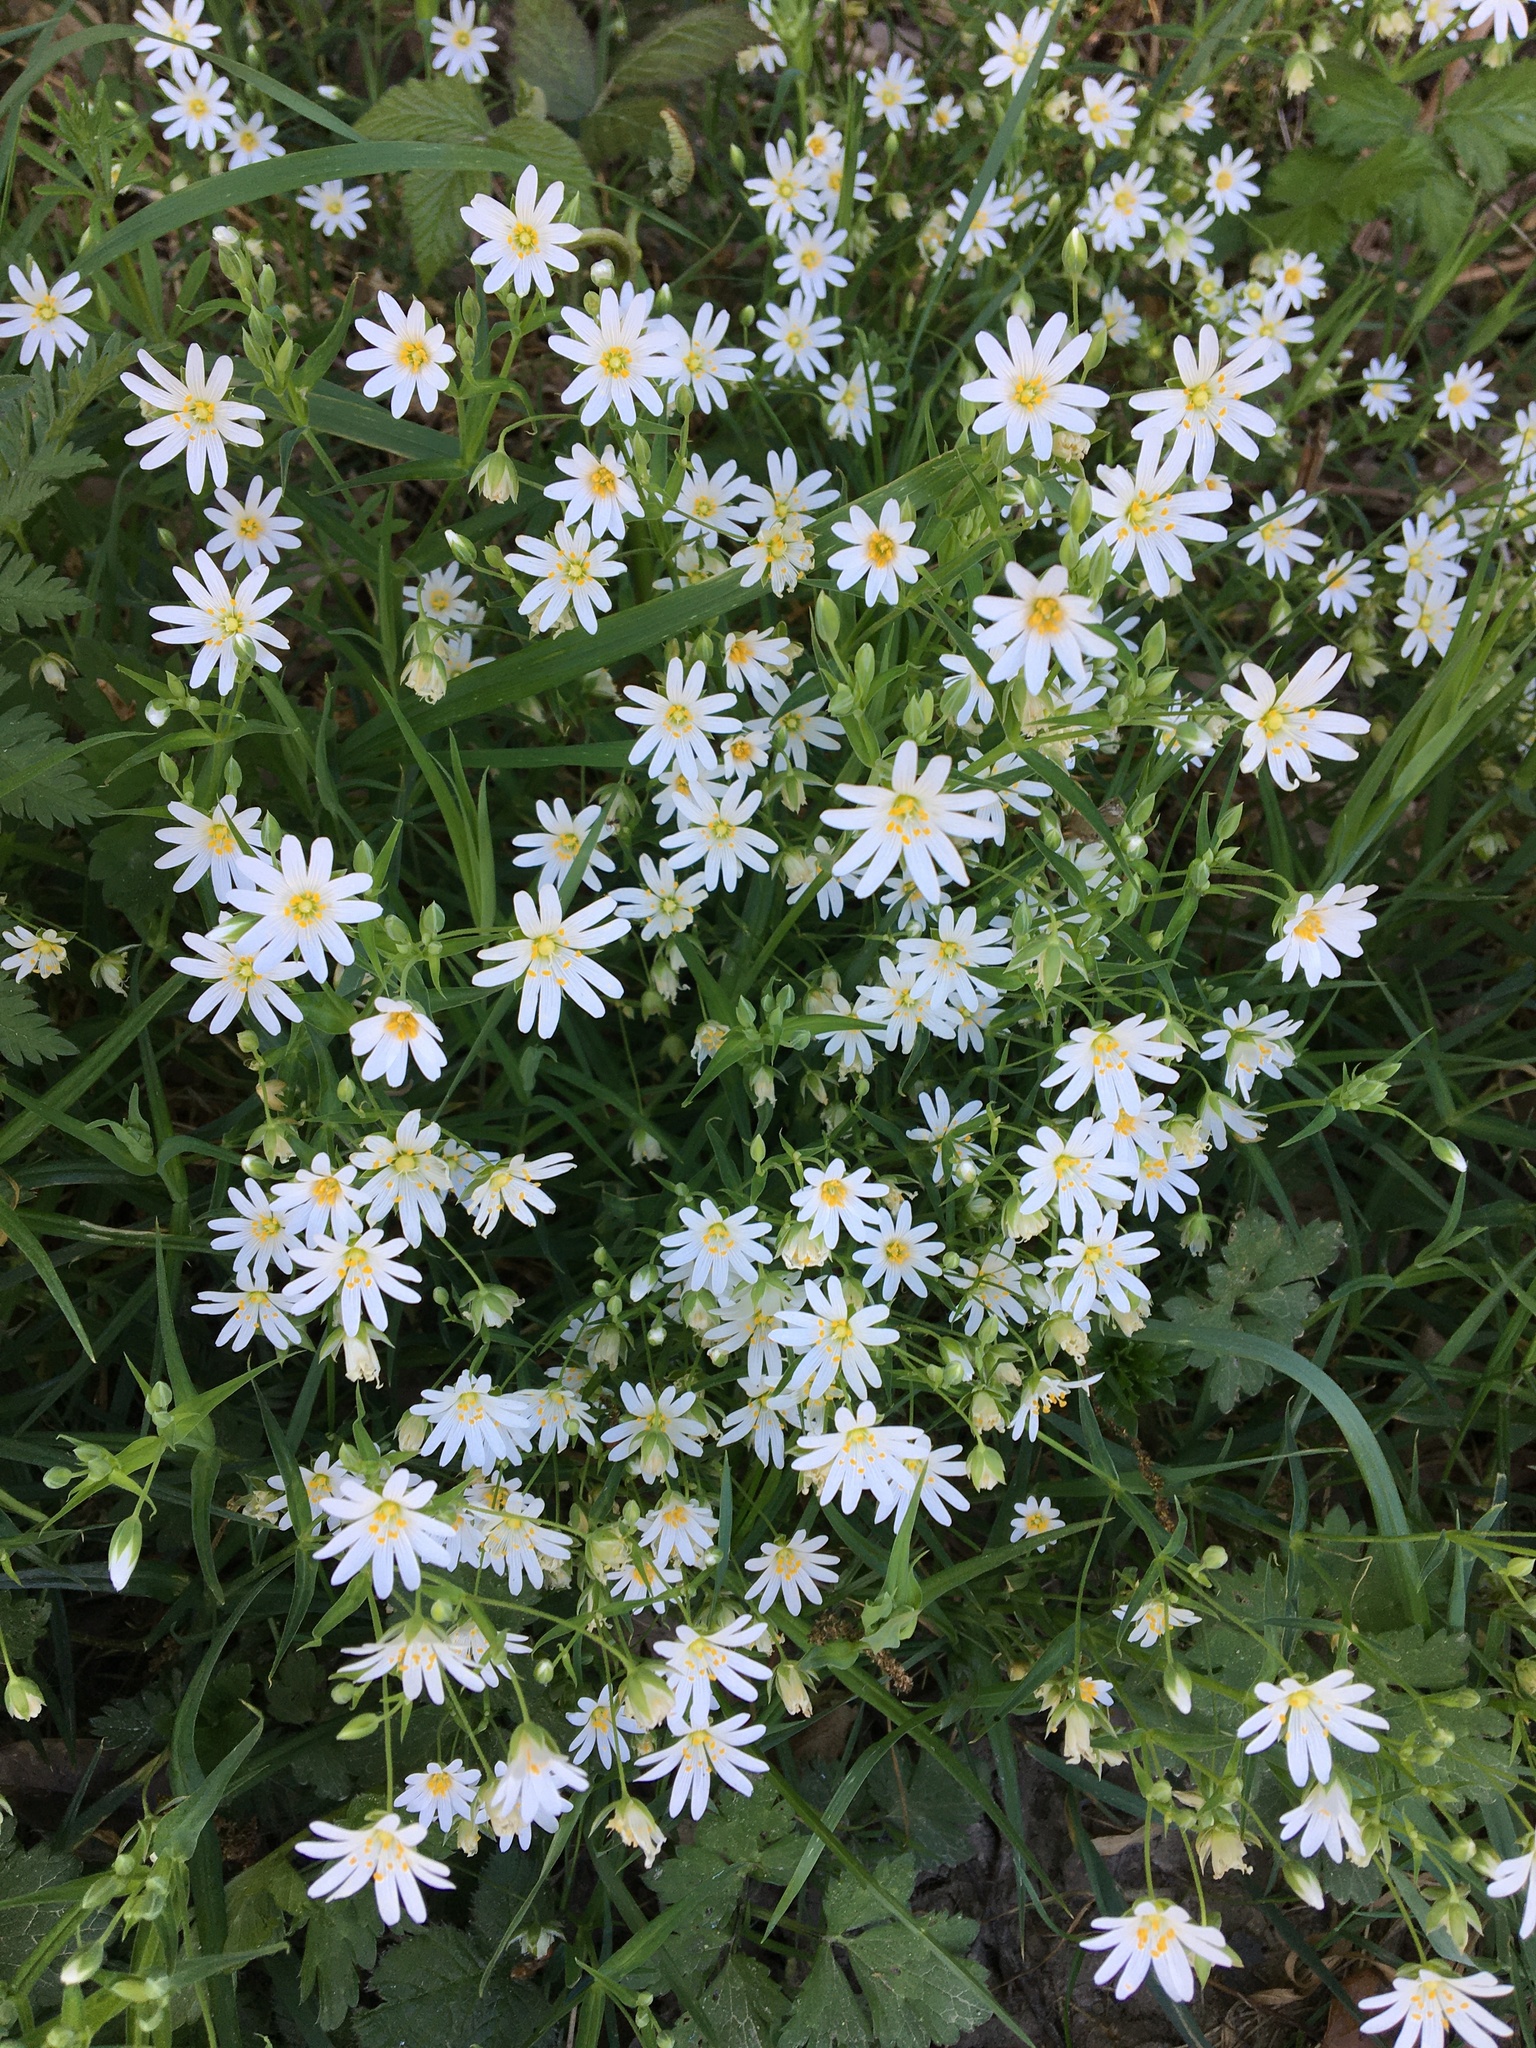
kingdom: Plantae
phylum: Tracheophyta
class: Magnoliopsida
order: Caryophyllales
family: Caryophyllaceae
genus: Rabelera
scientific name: Rabelera holostea
